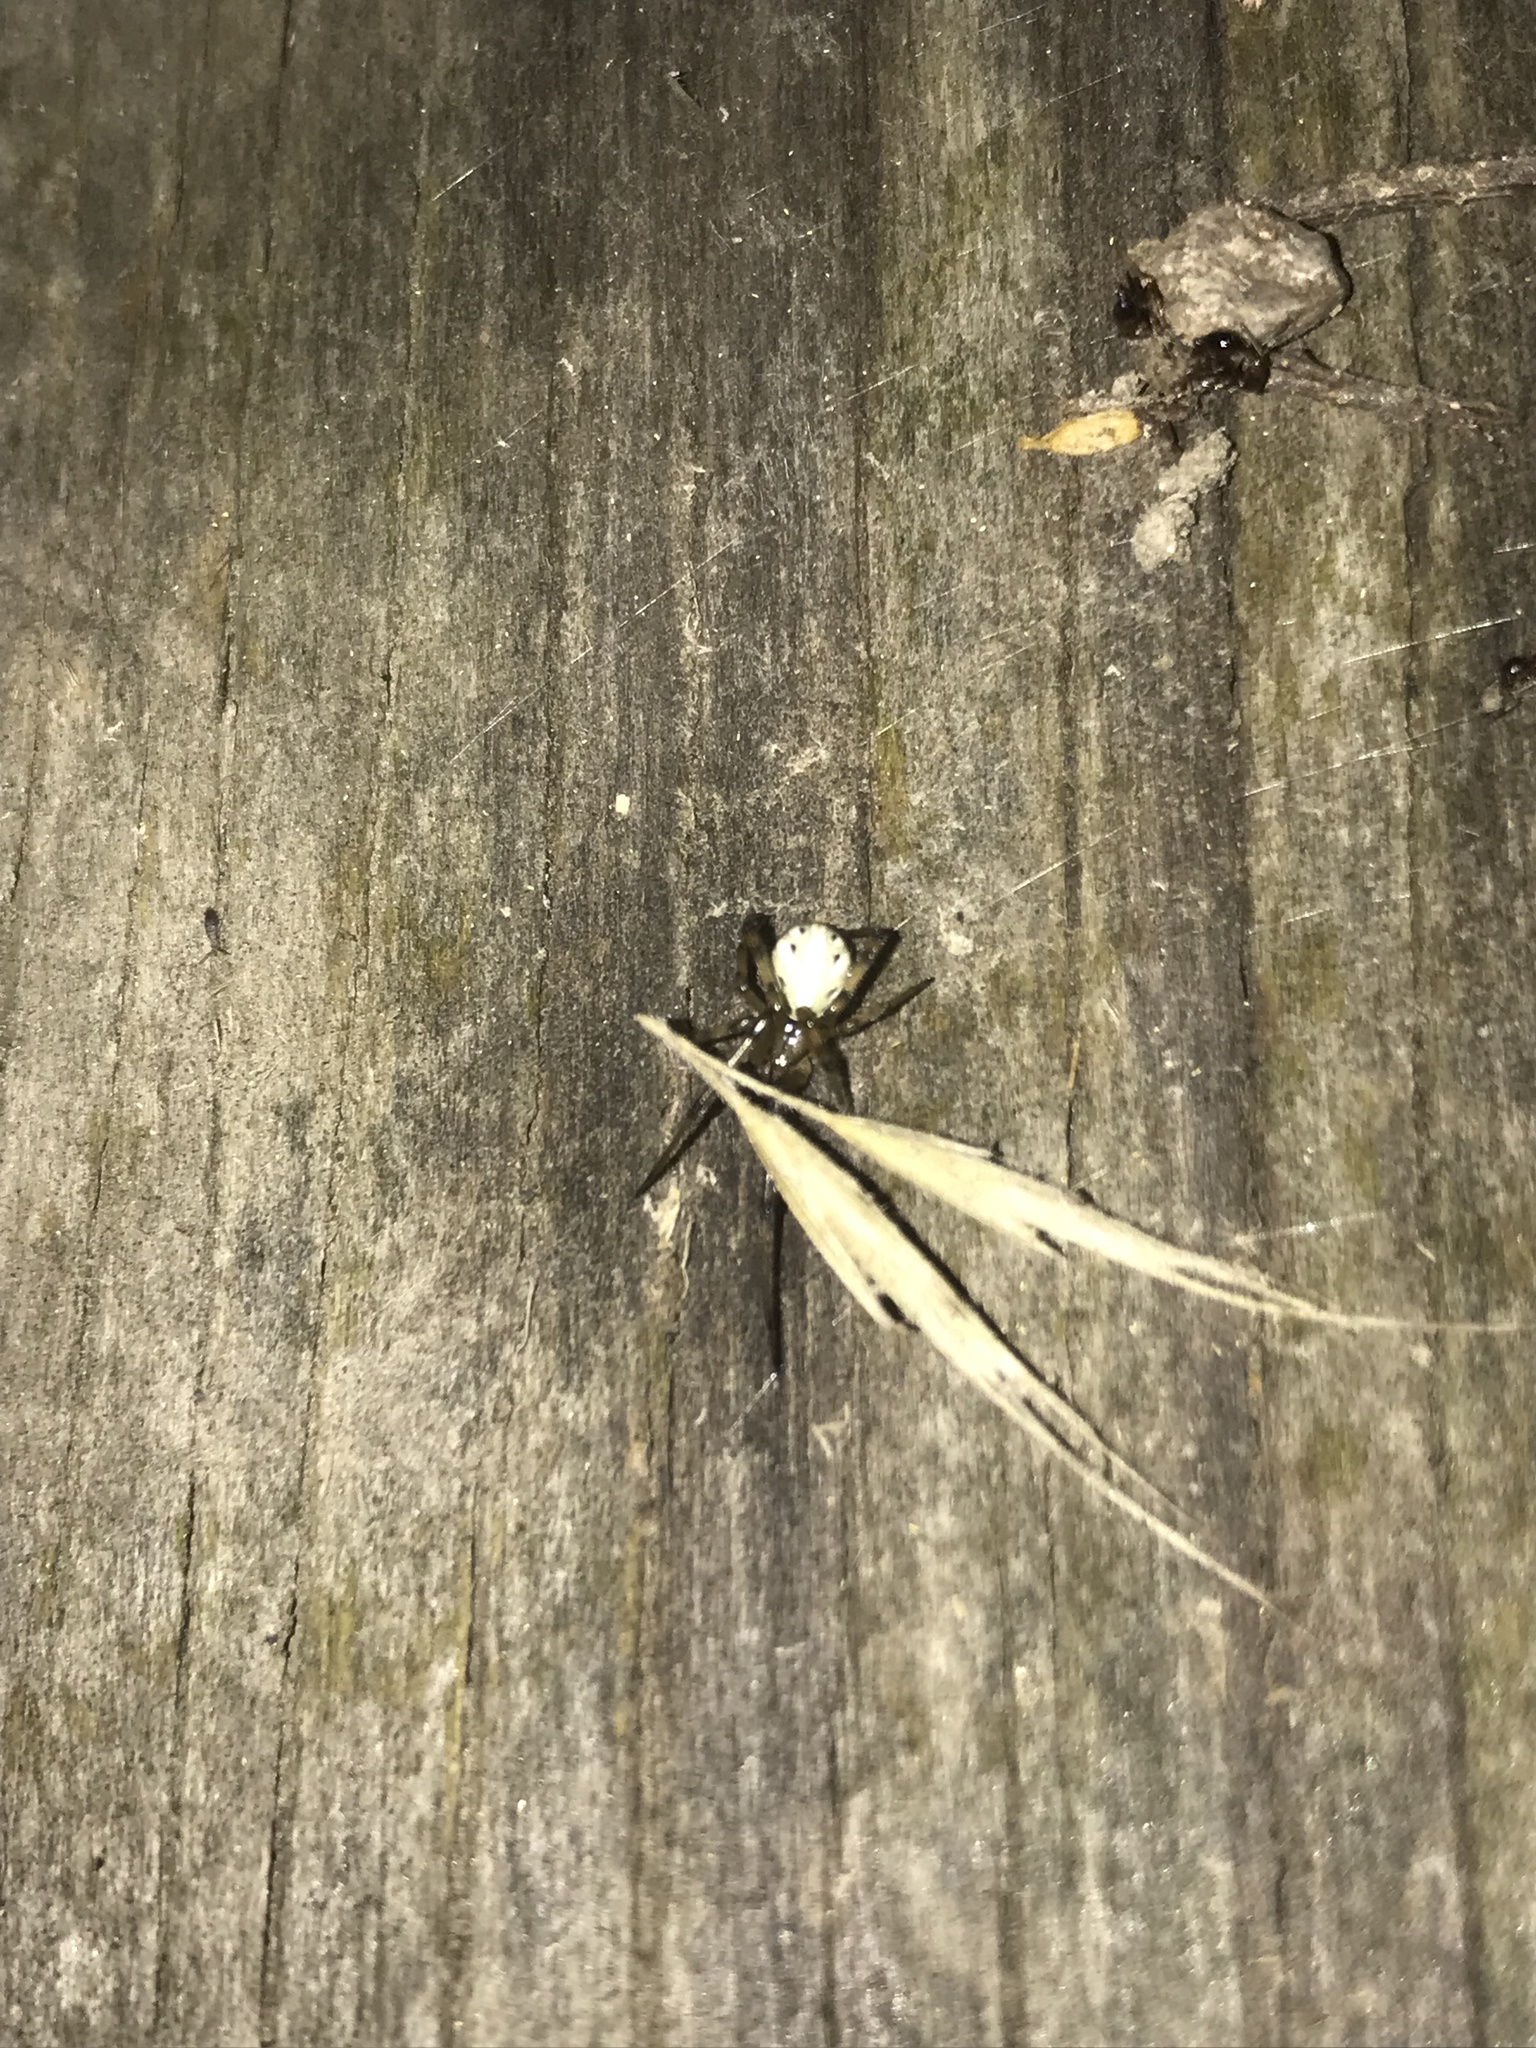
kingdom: Animalia
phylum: Arthropoda
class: Arachnida
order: Araneae
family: Theridiidae
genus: Latrodectus
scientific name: Latrodectus hesperus
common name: Western black widow
